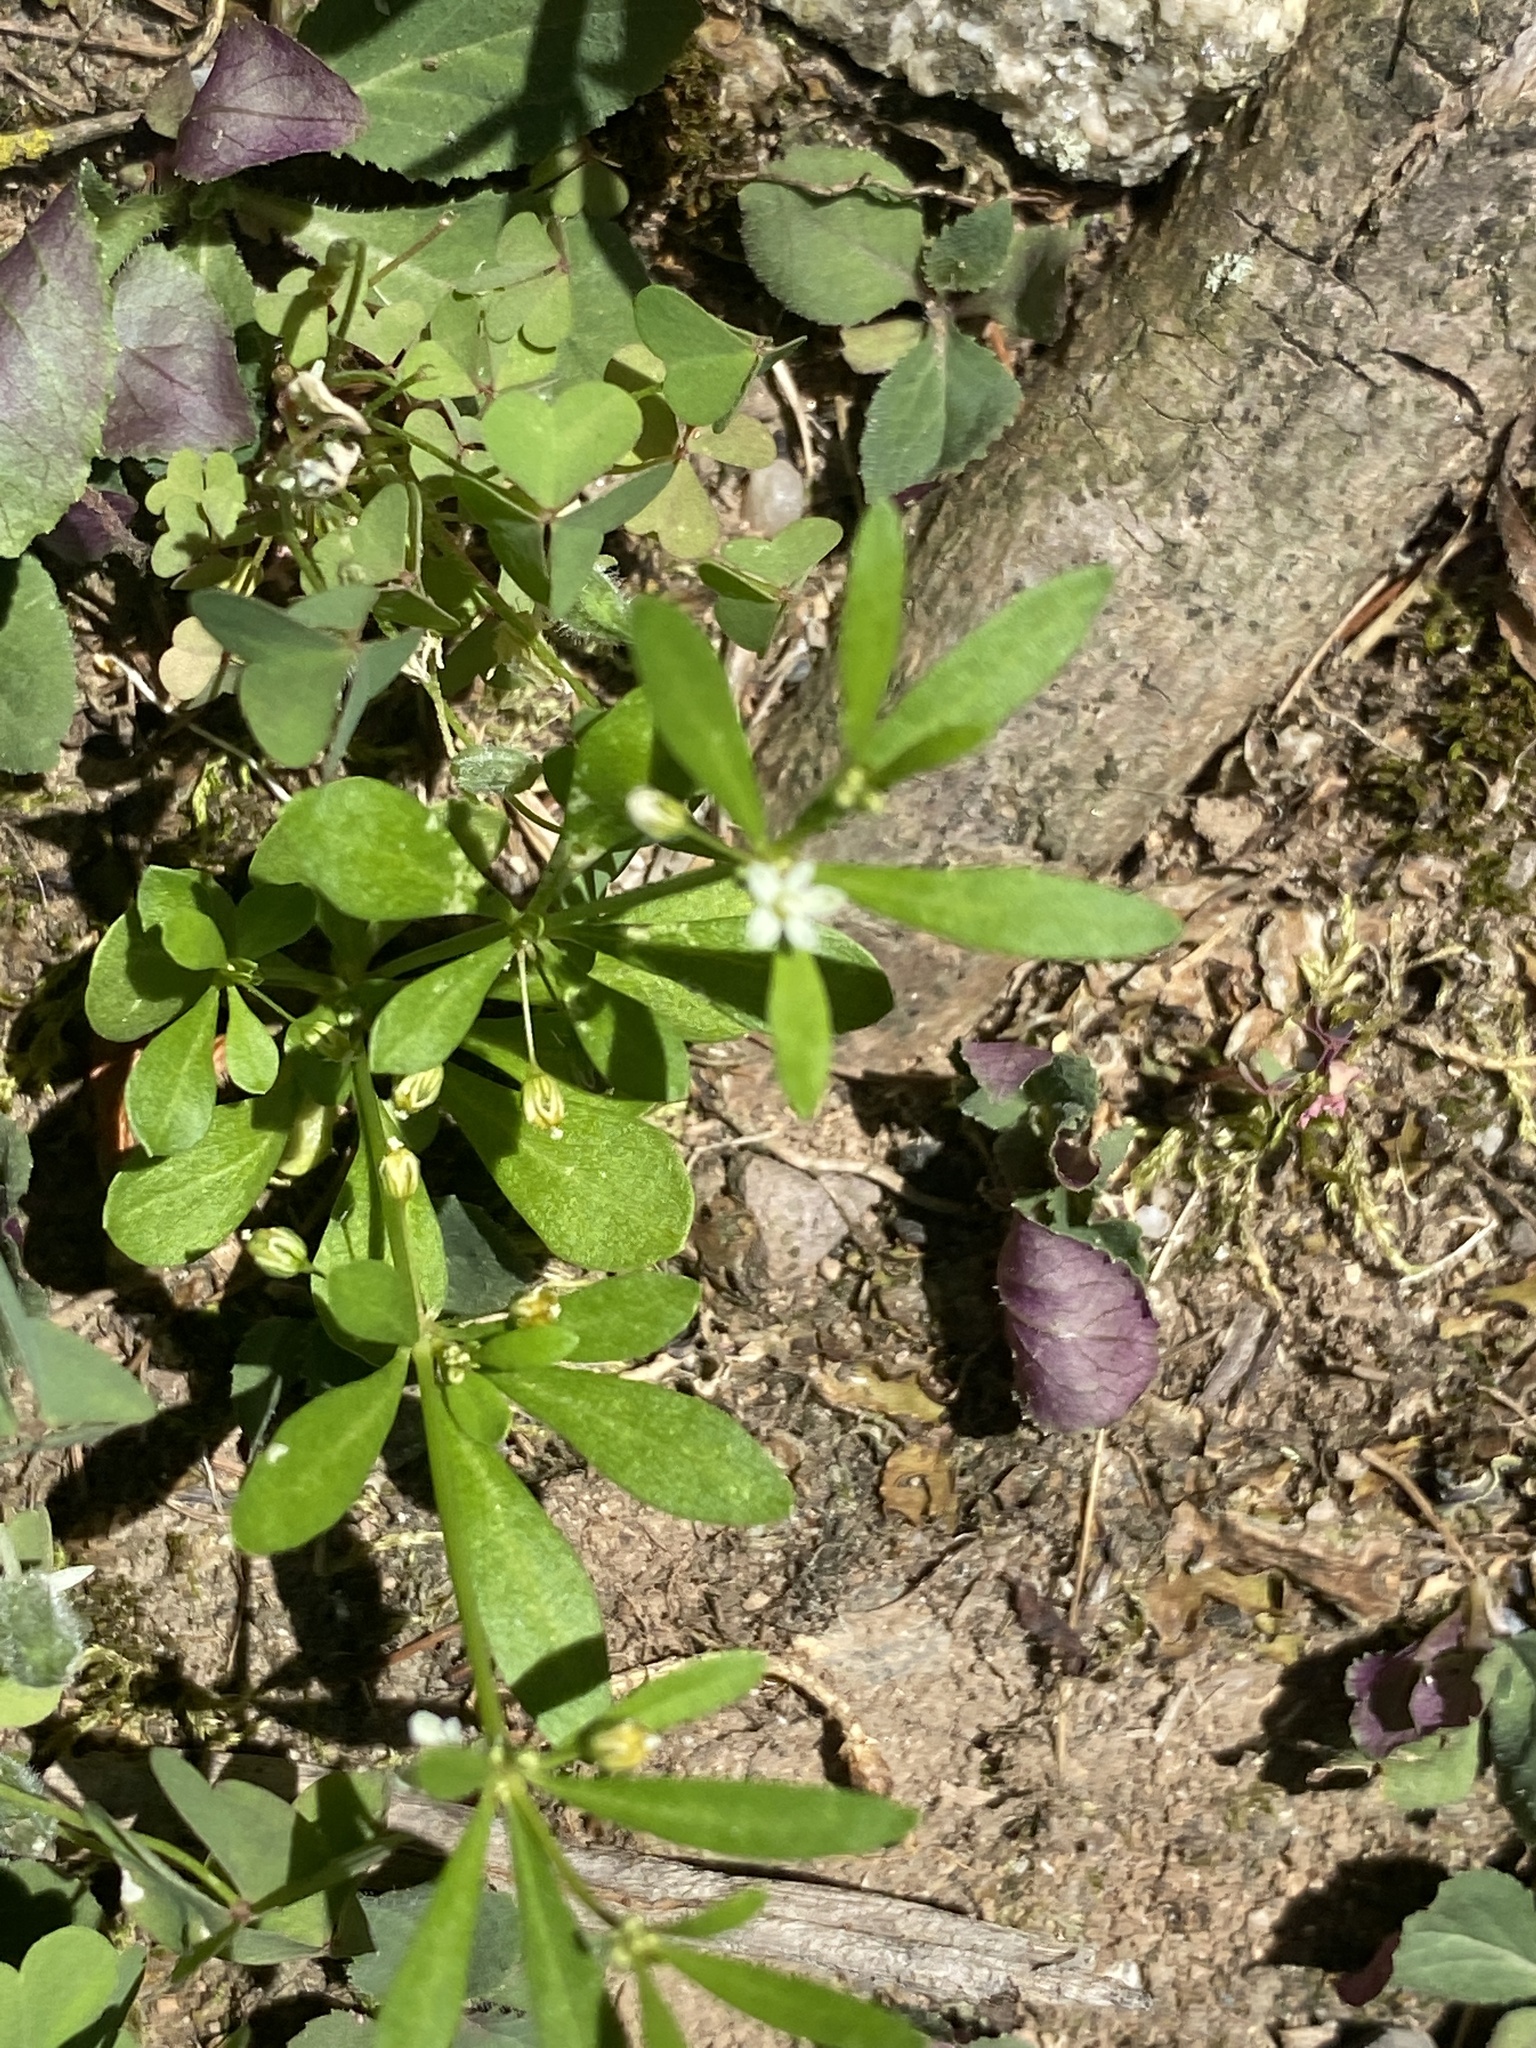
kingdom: Plantae
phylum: Tracheophyta
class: Magnoliopsida
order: Caryophyllales
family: Molluginaceae
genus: Mollugo
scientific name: Mollugo verticillata
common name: Green carpetweed
